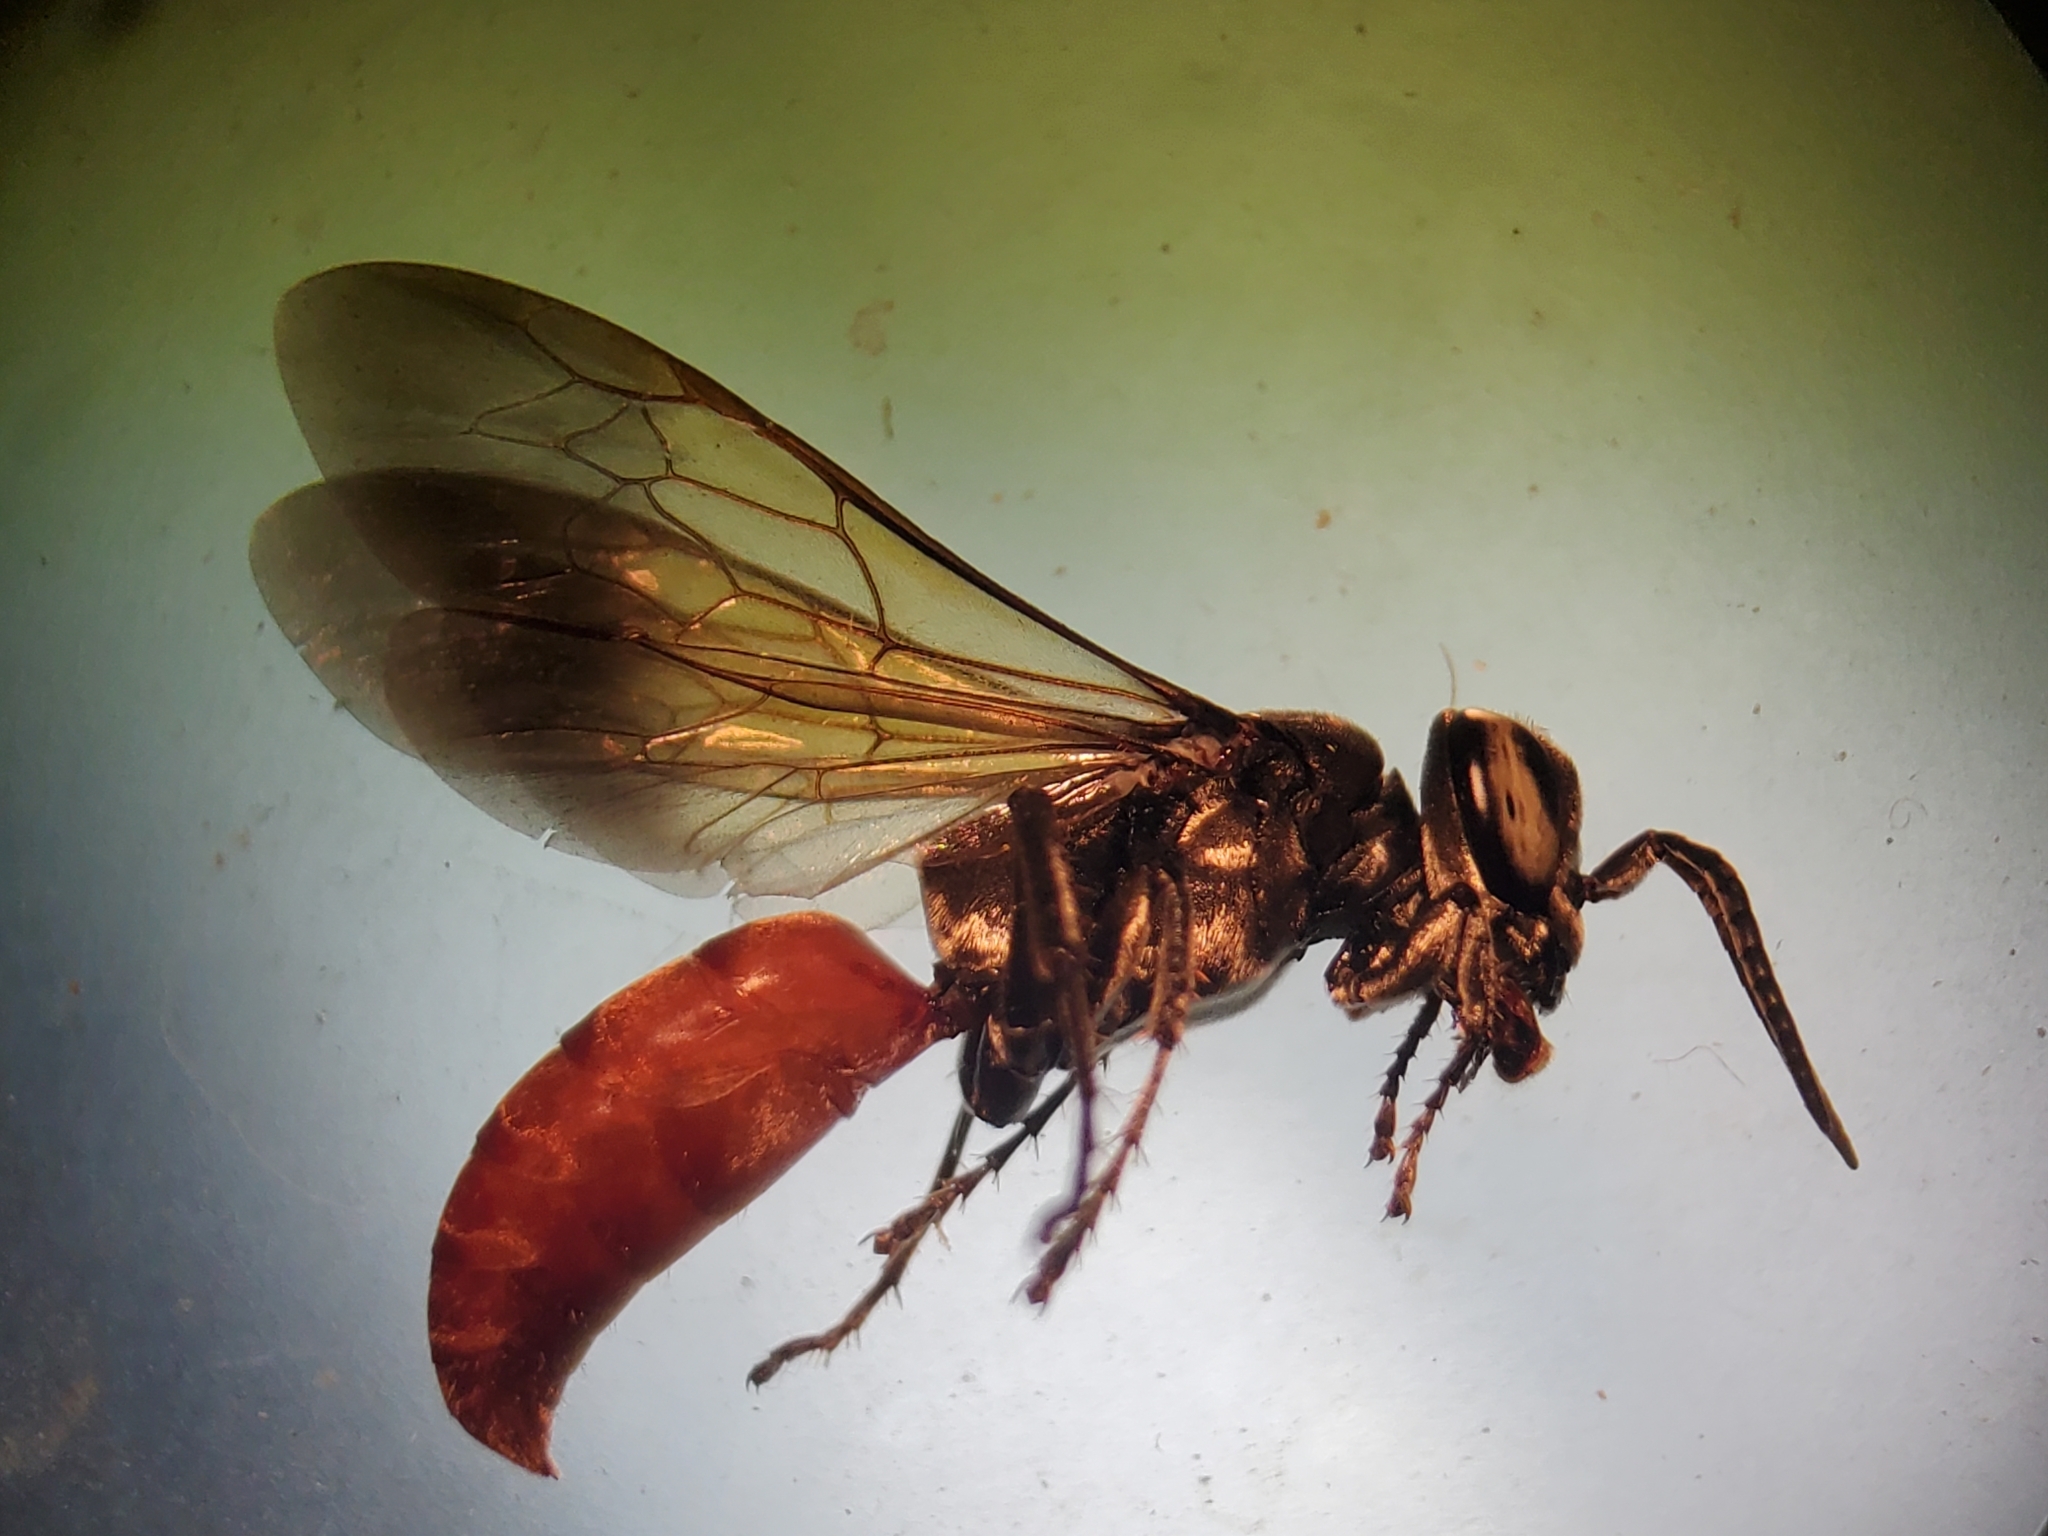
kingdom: Animalia
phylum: Arthropoda
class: Insecta
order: Hymenoptera
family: Crabronidae
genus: Larra
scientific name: Larra bicolor
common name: Wasp
